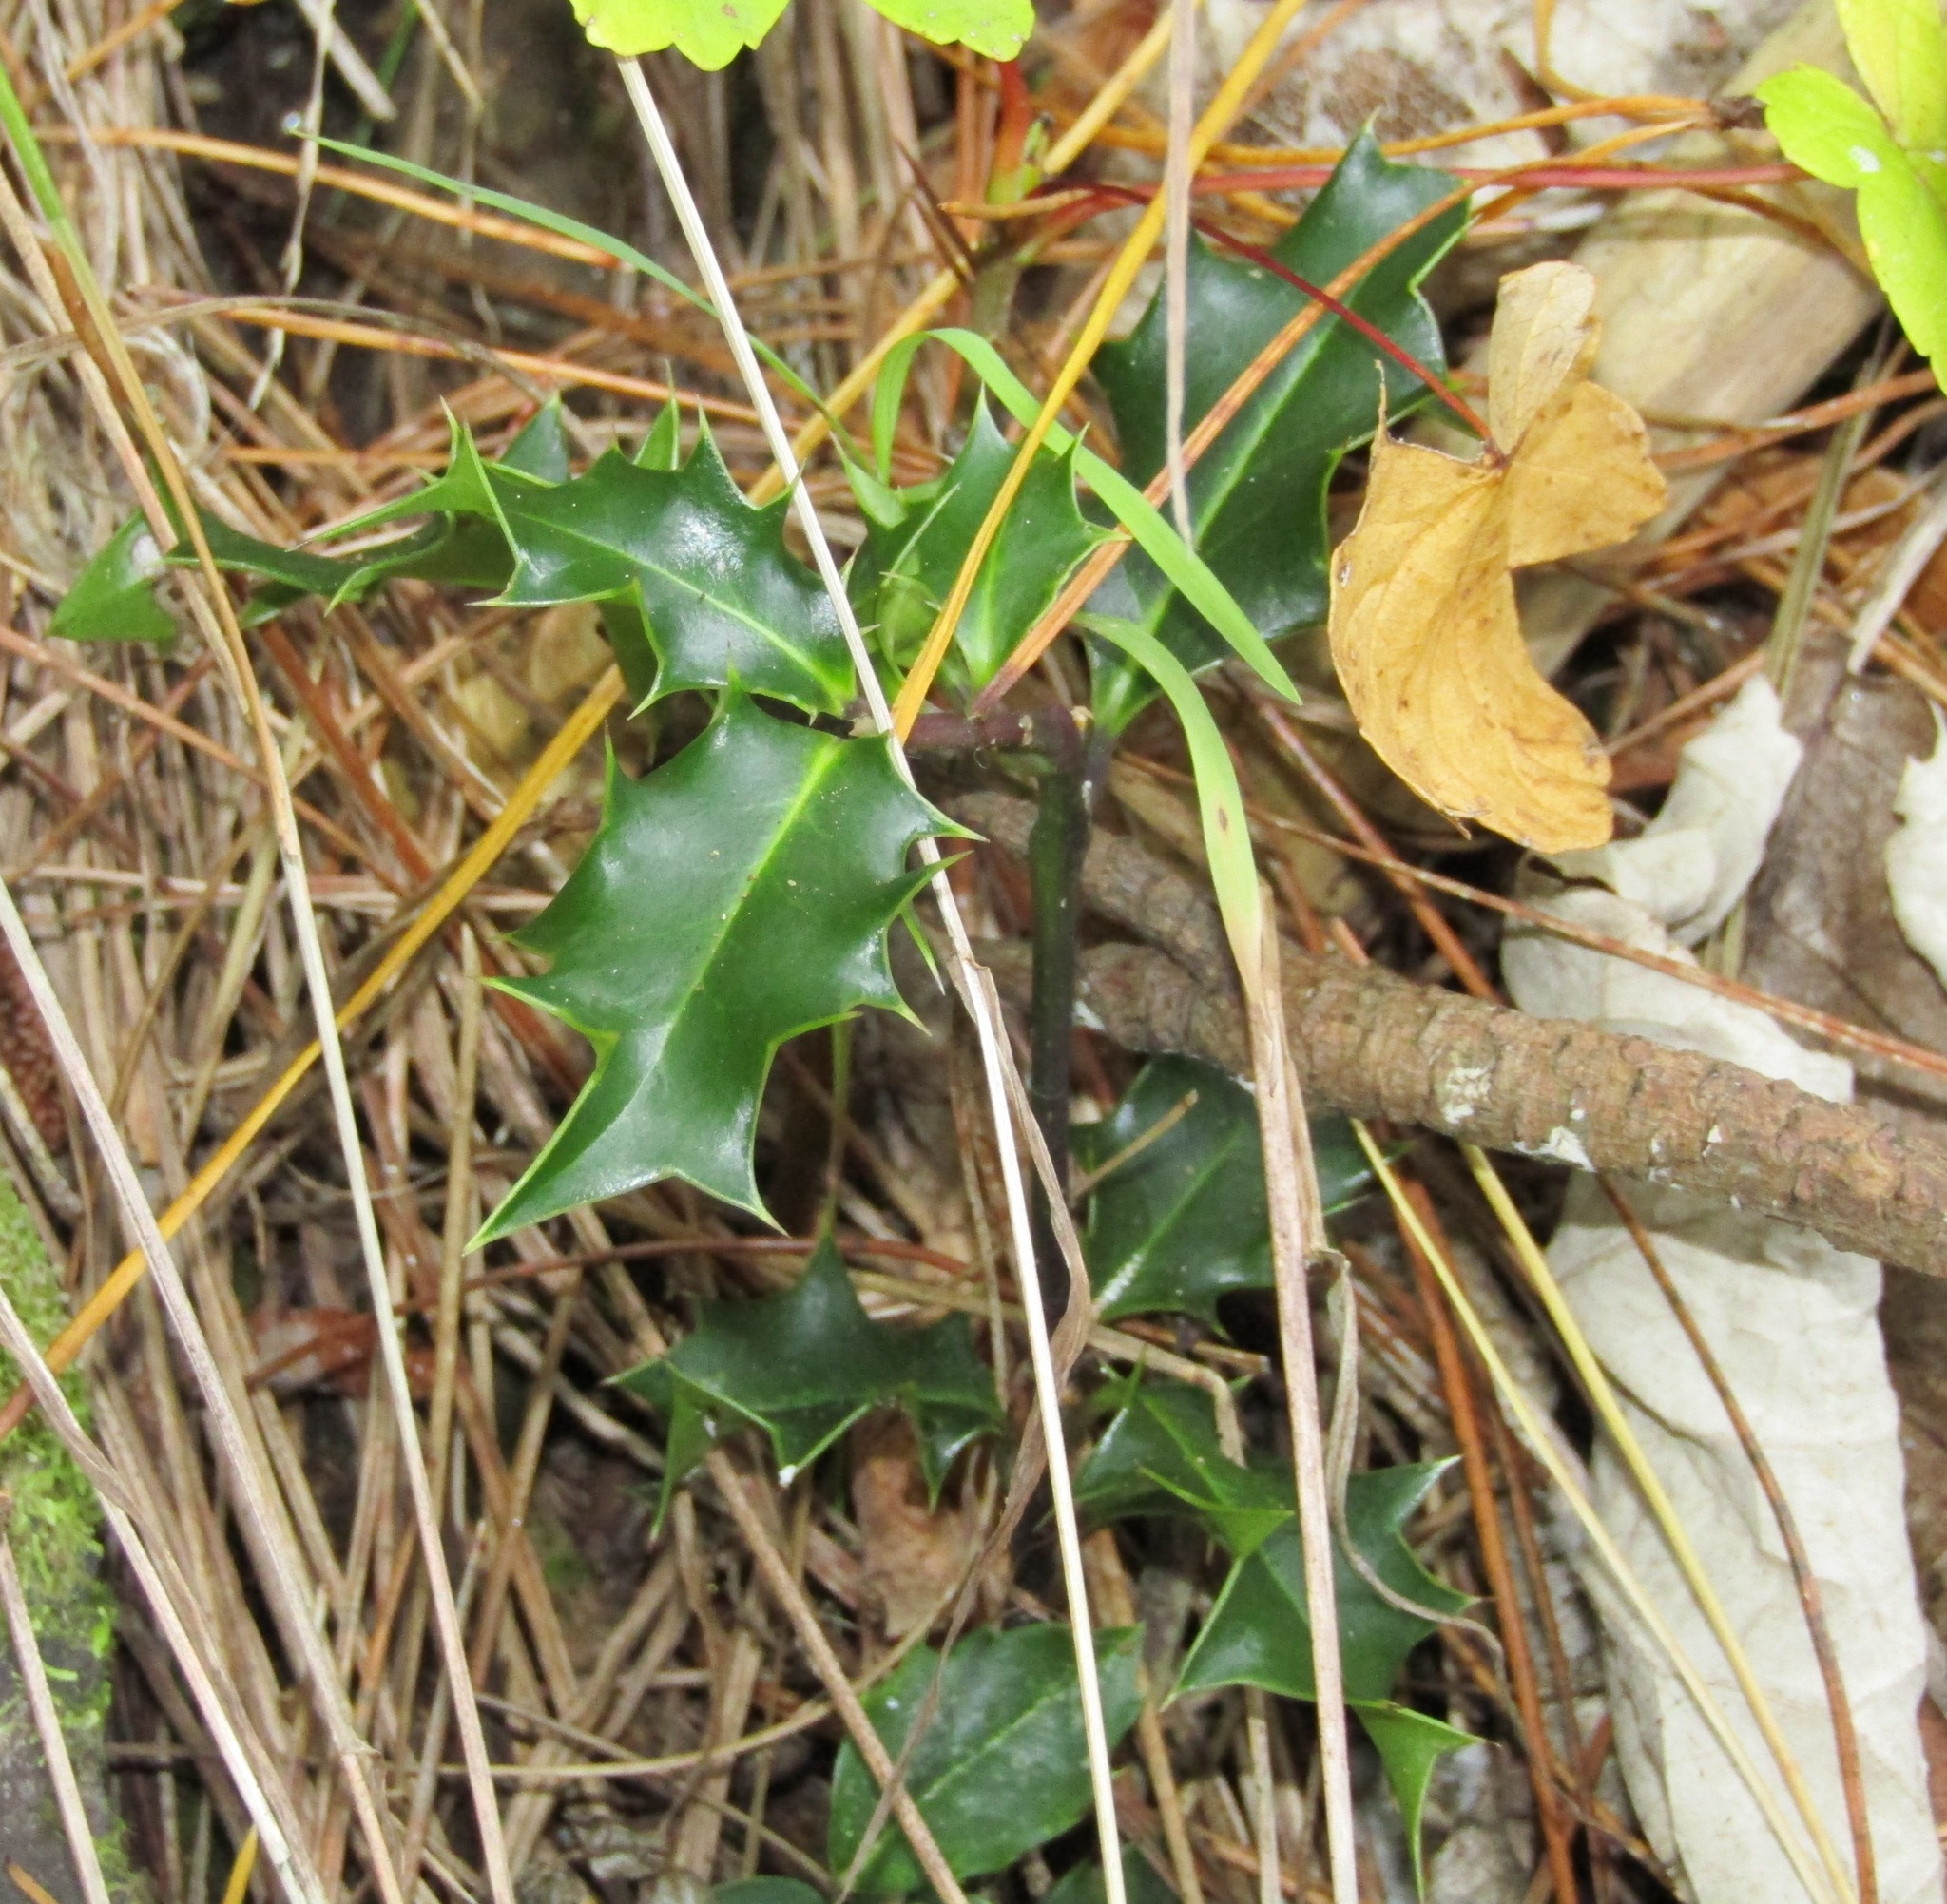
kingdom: Plantae
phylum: Tracheophyta
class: Magnoliopsida
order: Aquifoliales
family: Aquifoliaceae
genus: Ilex
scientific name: Ilex aquifolium
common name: English holly
